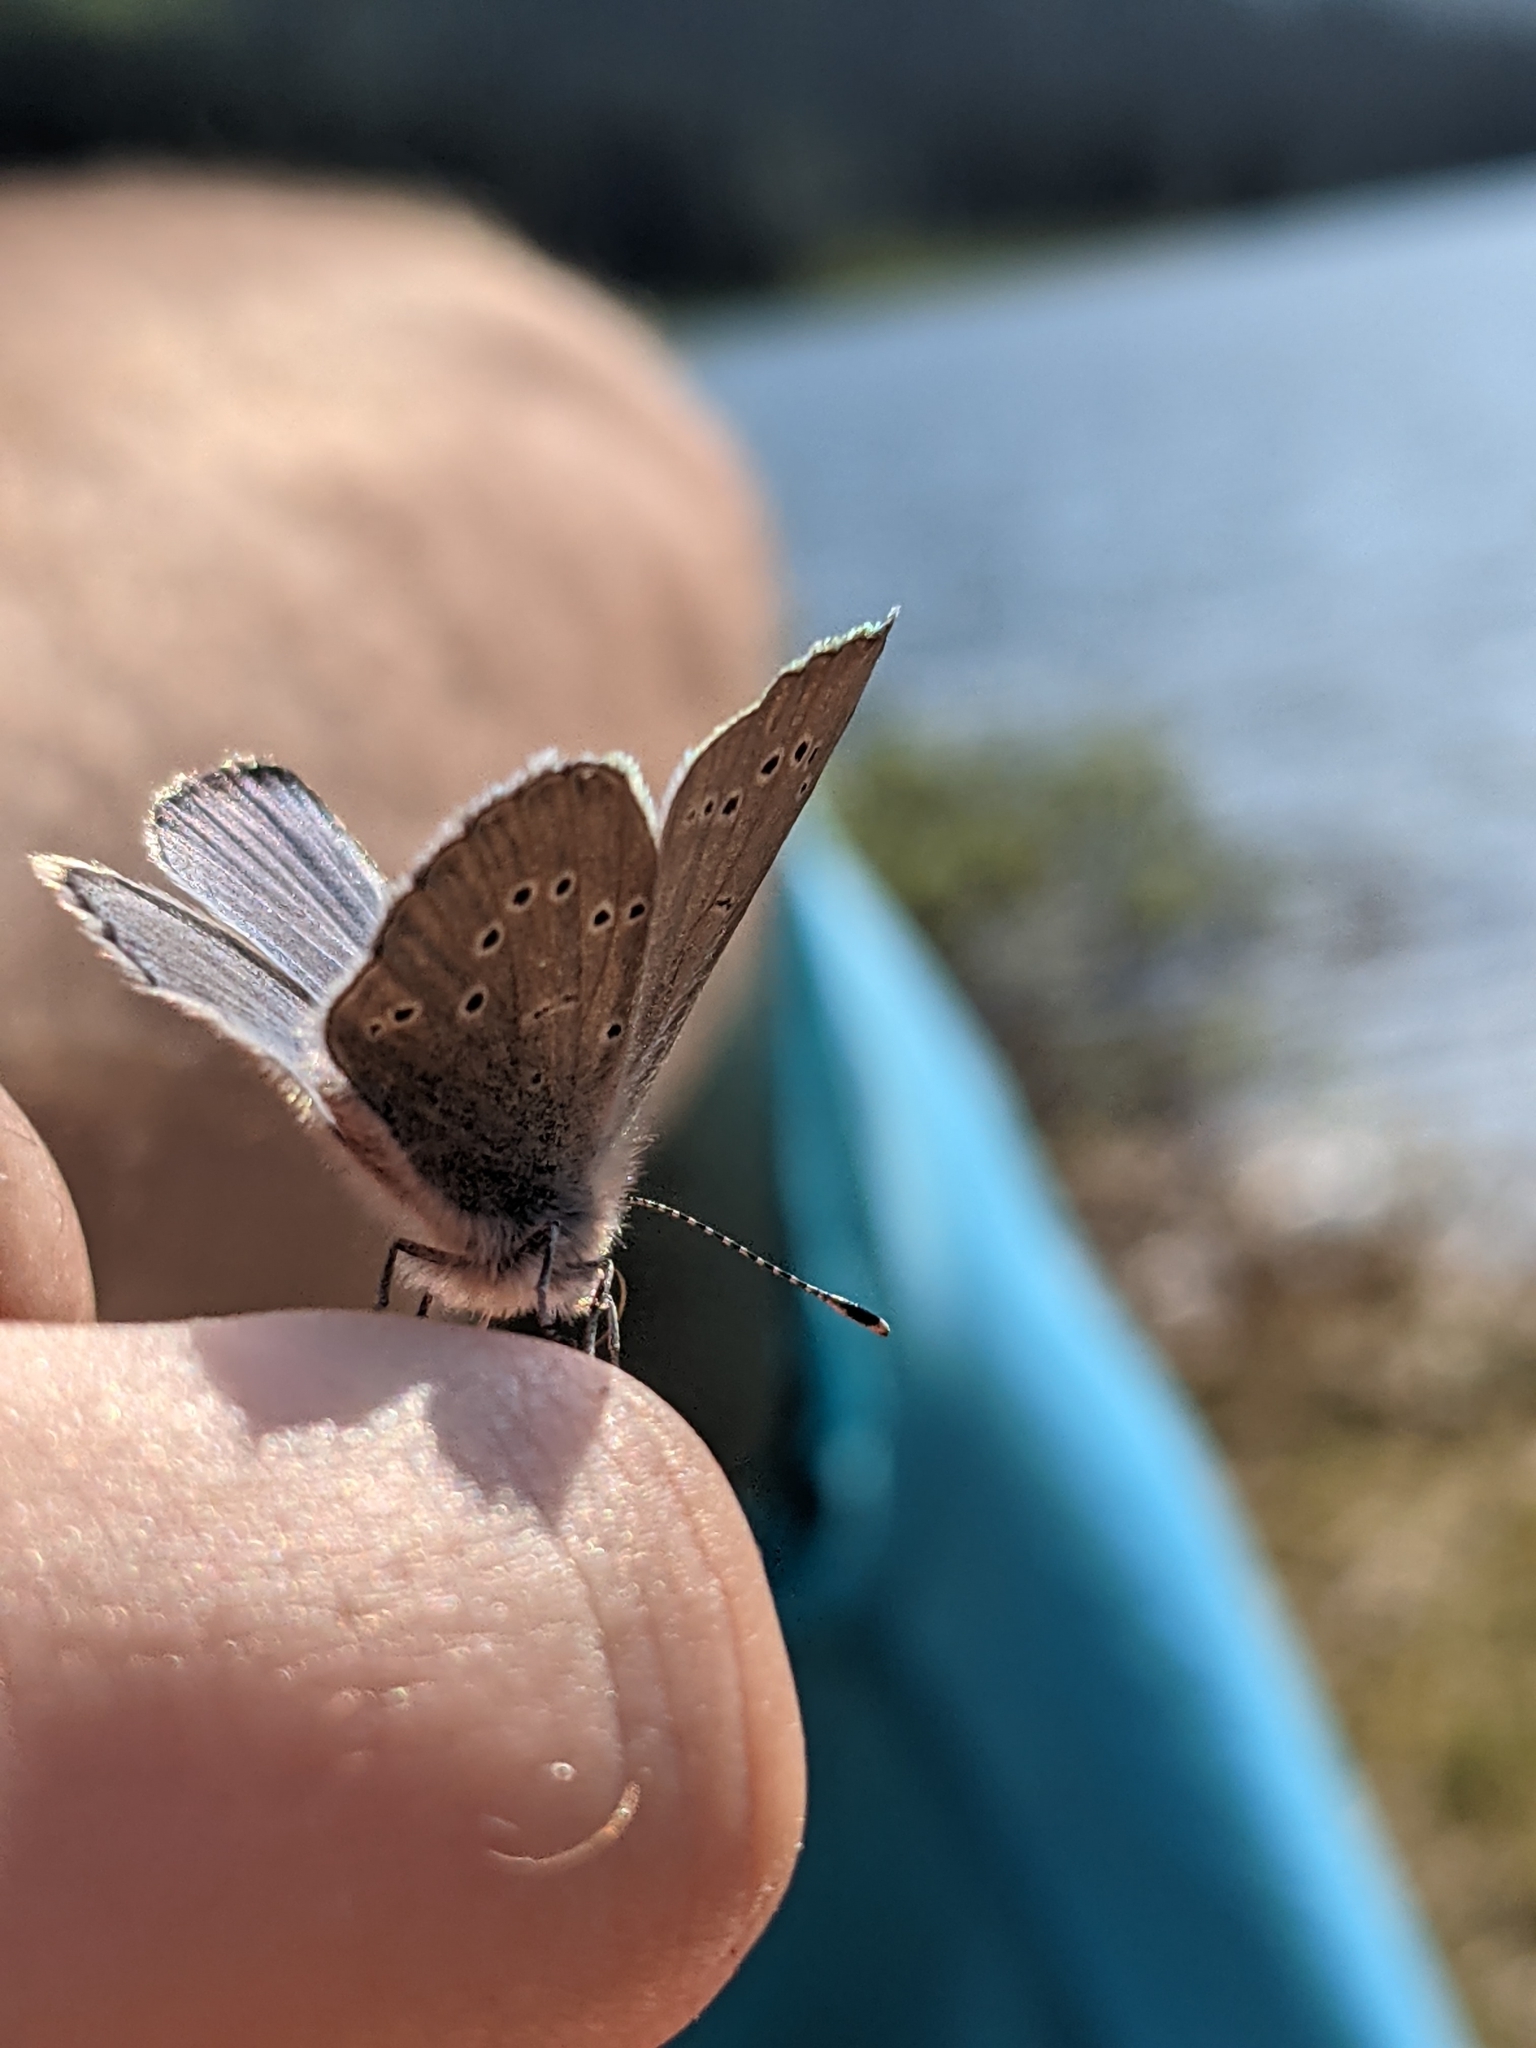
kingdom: Animalia
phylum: Arthropoda
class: Insecta
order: Lepidoptera
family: Lycaenidae
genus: Glaucopsyche
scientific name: Glaucopsyche lygdamus
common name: Silvery blue
